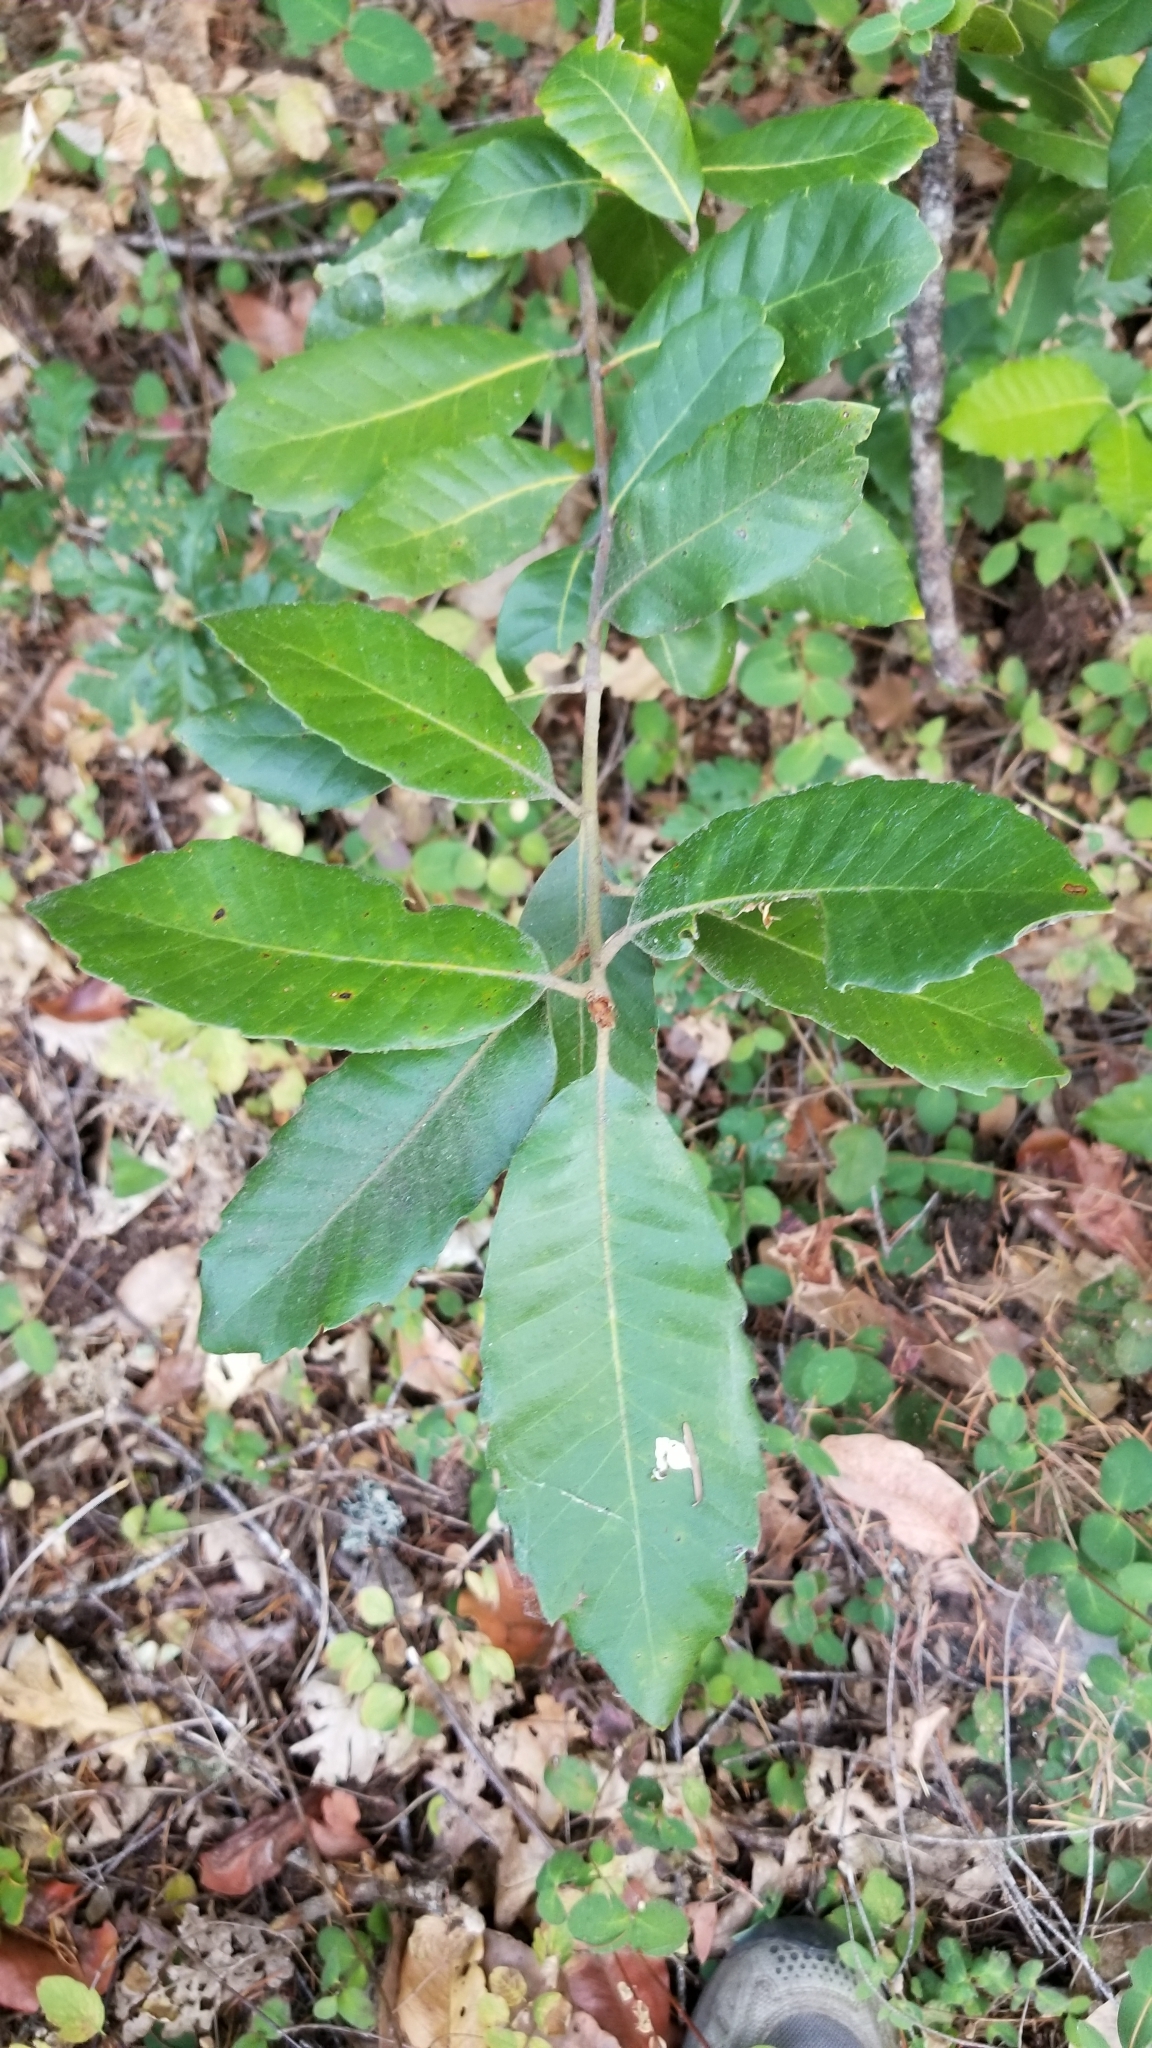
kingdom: Plantae
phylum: Tracheophyta
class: Magnoliopsida
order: Fagales
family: Fagaceae
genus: Notholithocarpus
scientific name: Notholithocarpus densiflorus
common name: Tan bark oak
